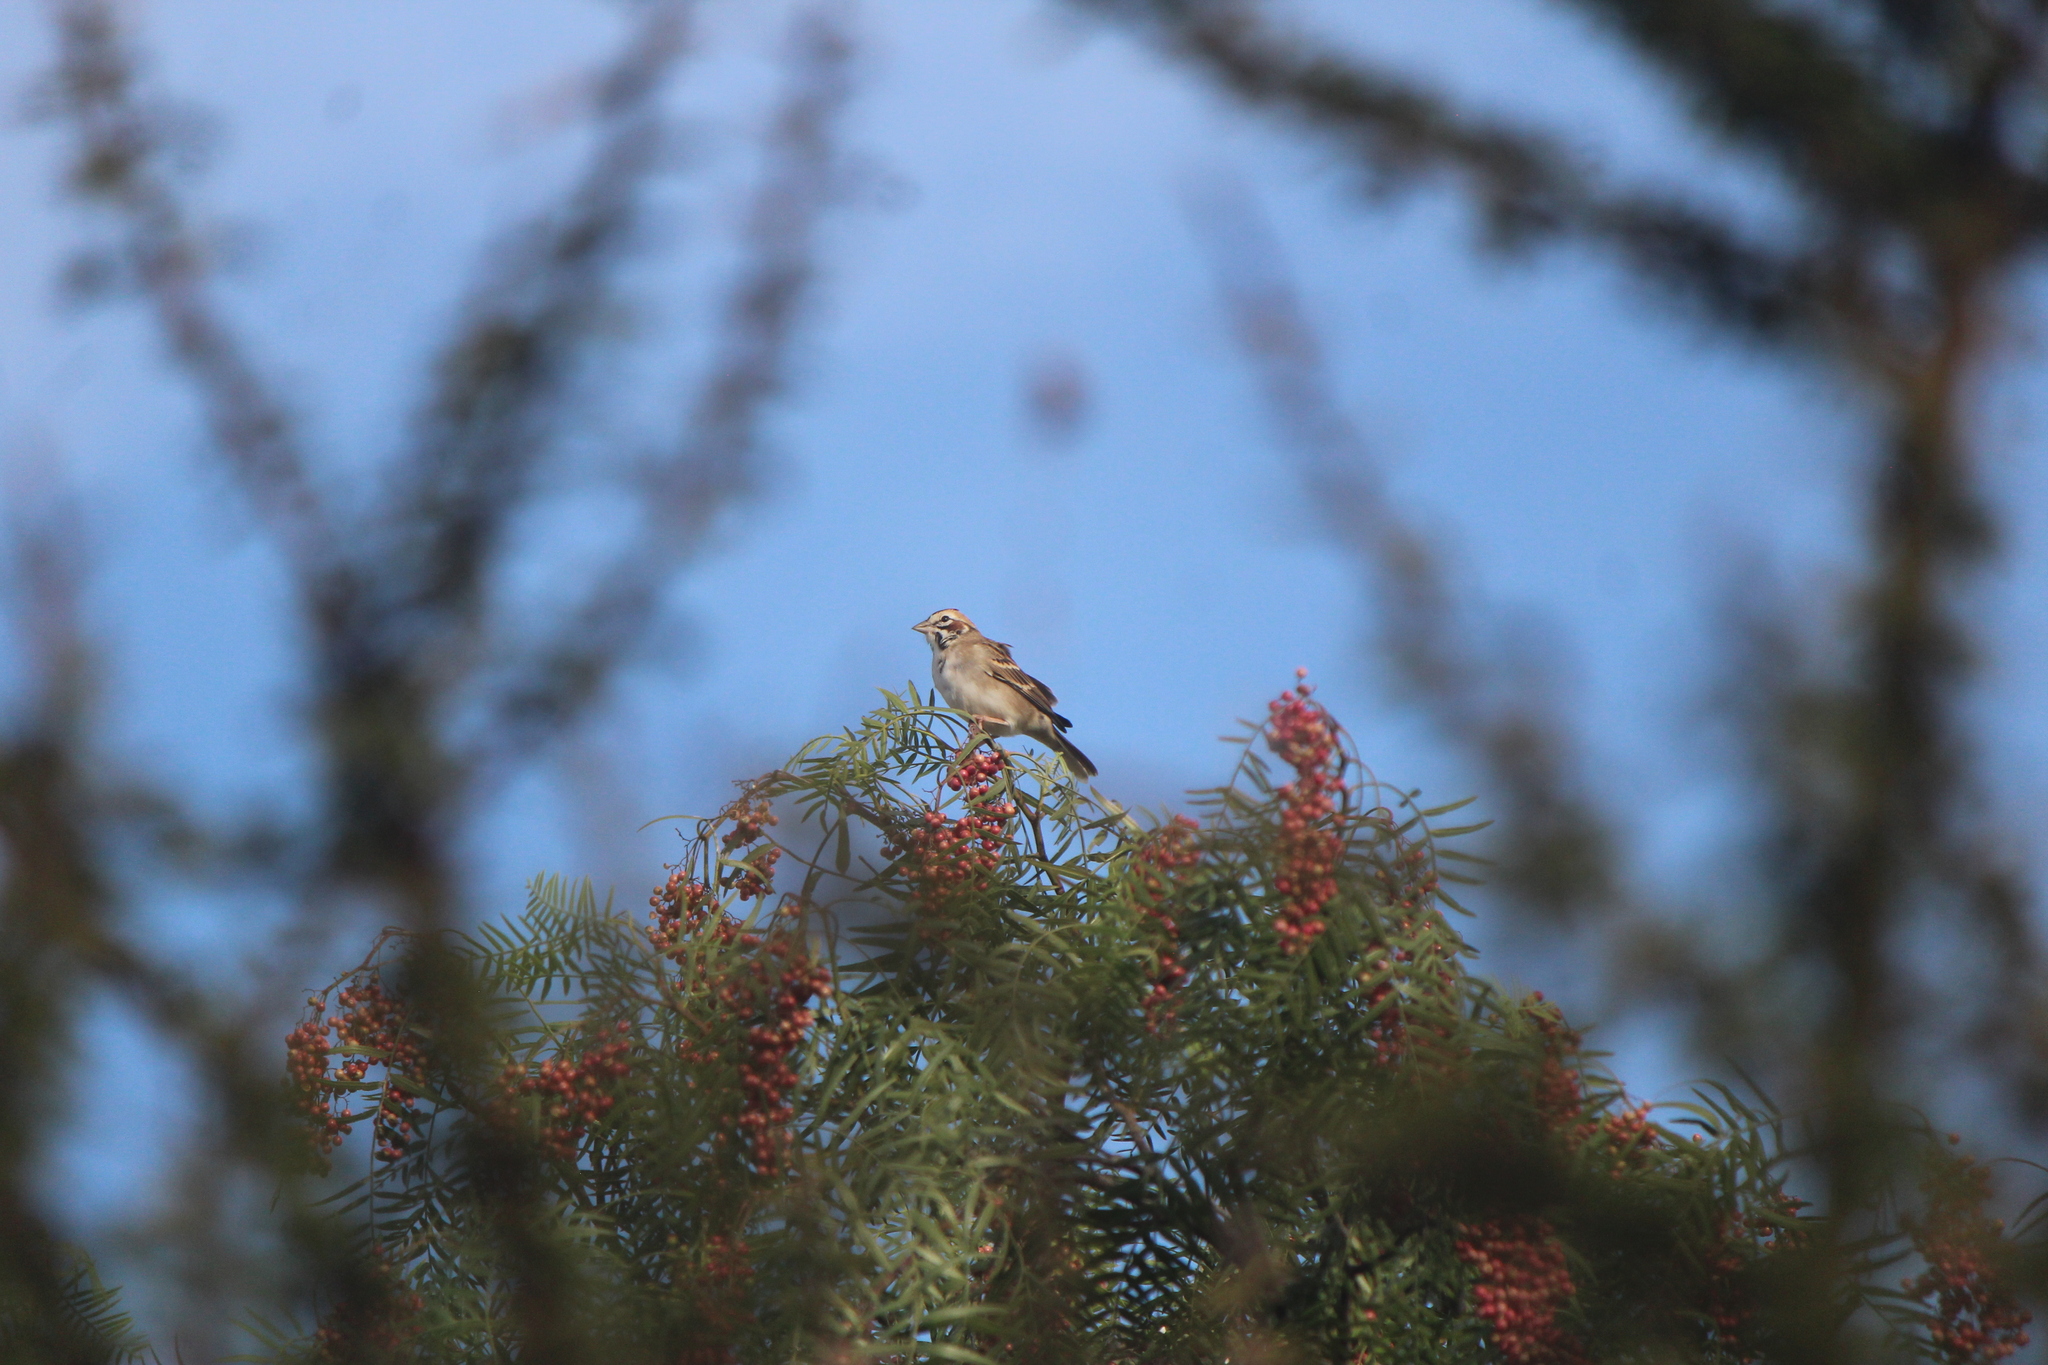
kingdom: Animalia
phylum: Chordata
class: Aves
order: Passeriformes
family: Fringillidae
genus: Haemorhous
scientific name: Haemorhous mexicanus
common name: House finch
